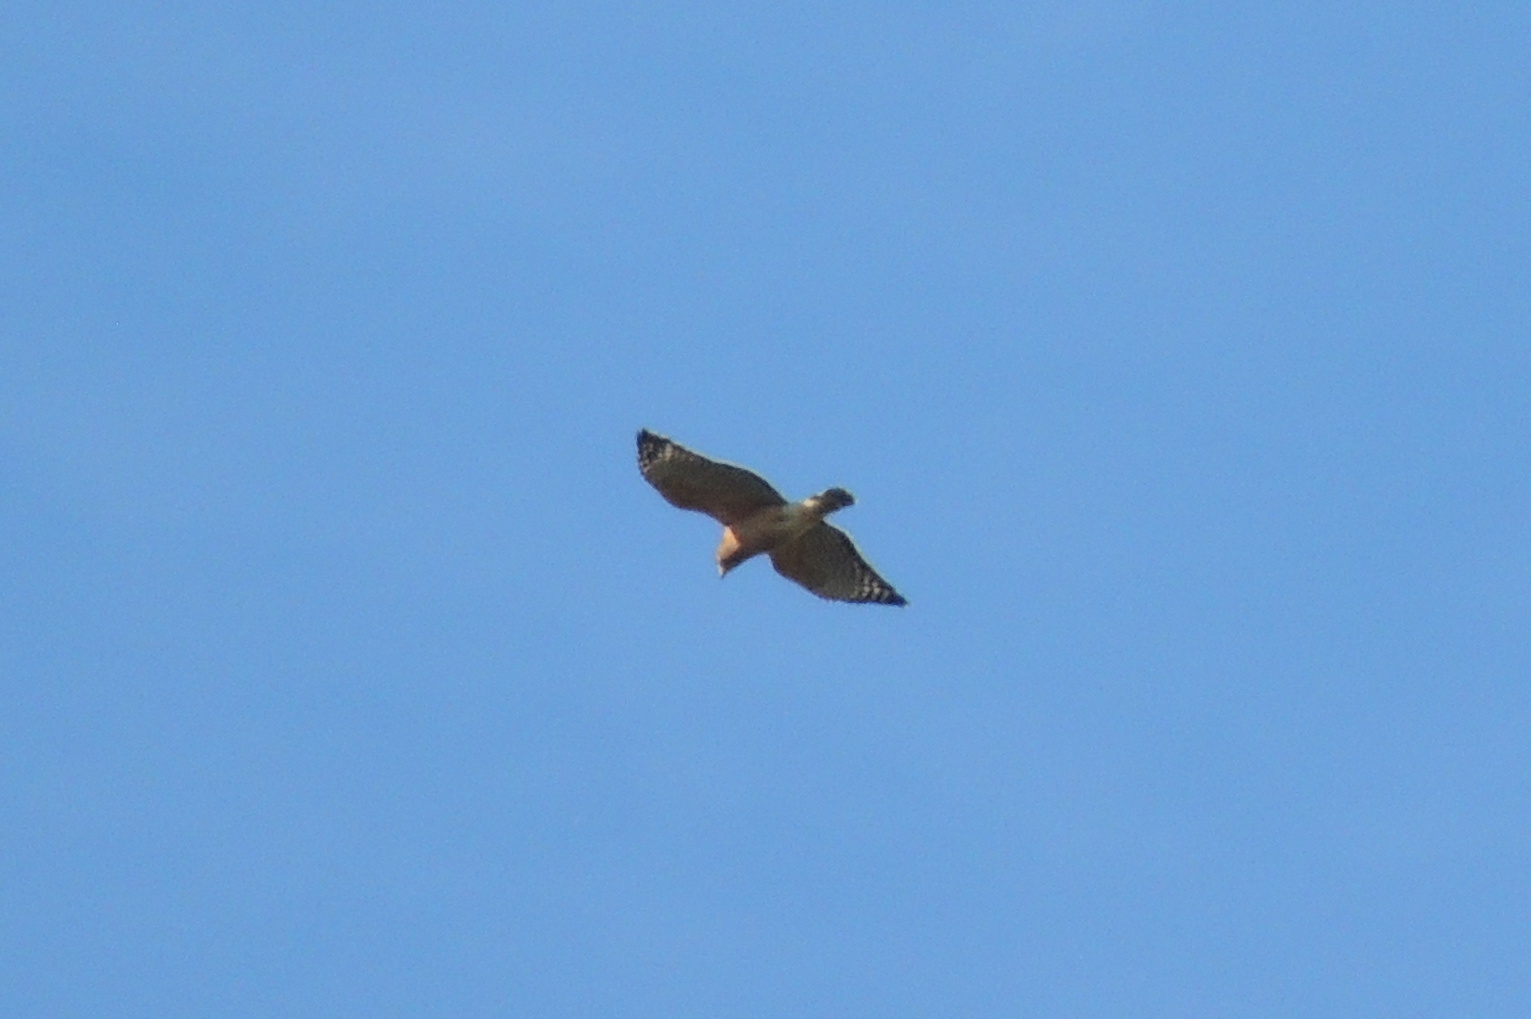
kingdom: Animalia
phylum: Chordata
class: Aves
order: Accipitriformes
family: Accipitridae
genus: Buteo
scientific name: Buteo lineatus
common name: Red-shouldered hawk
